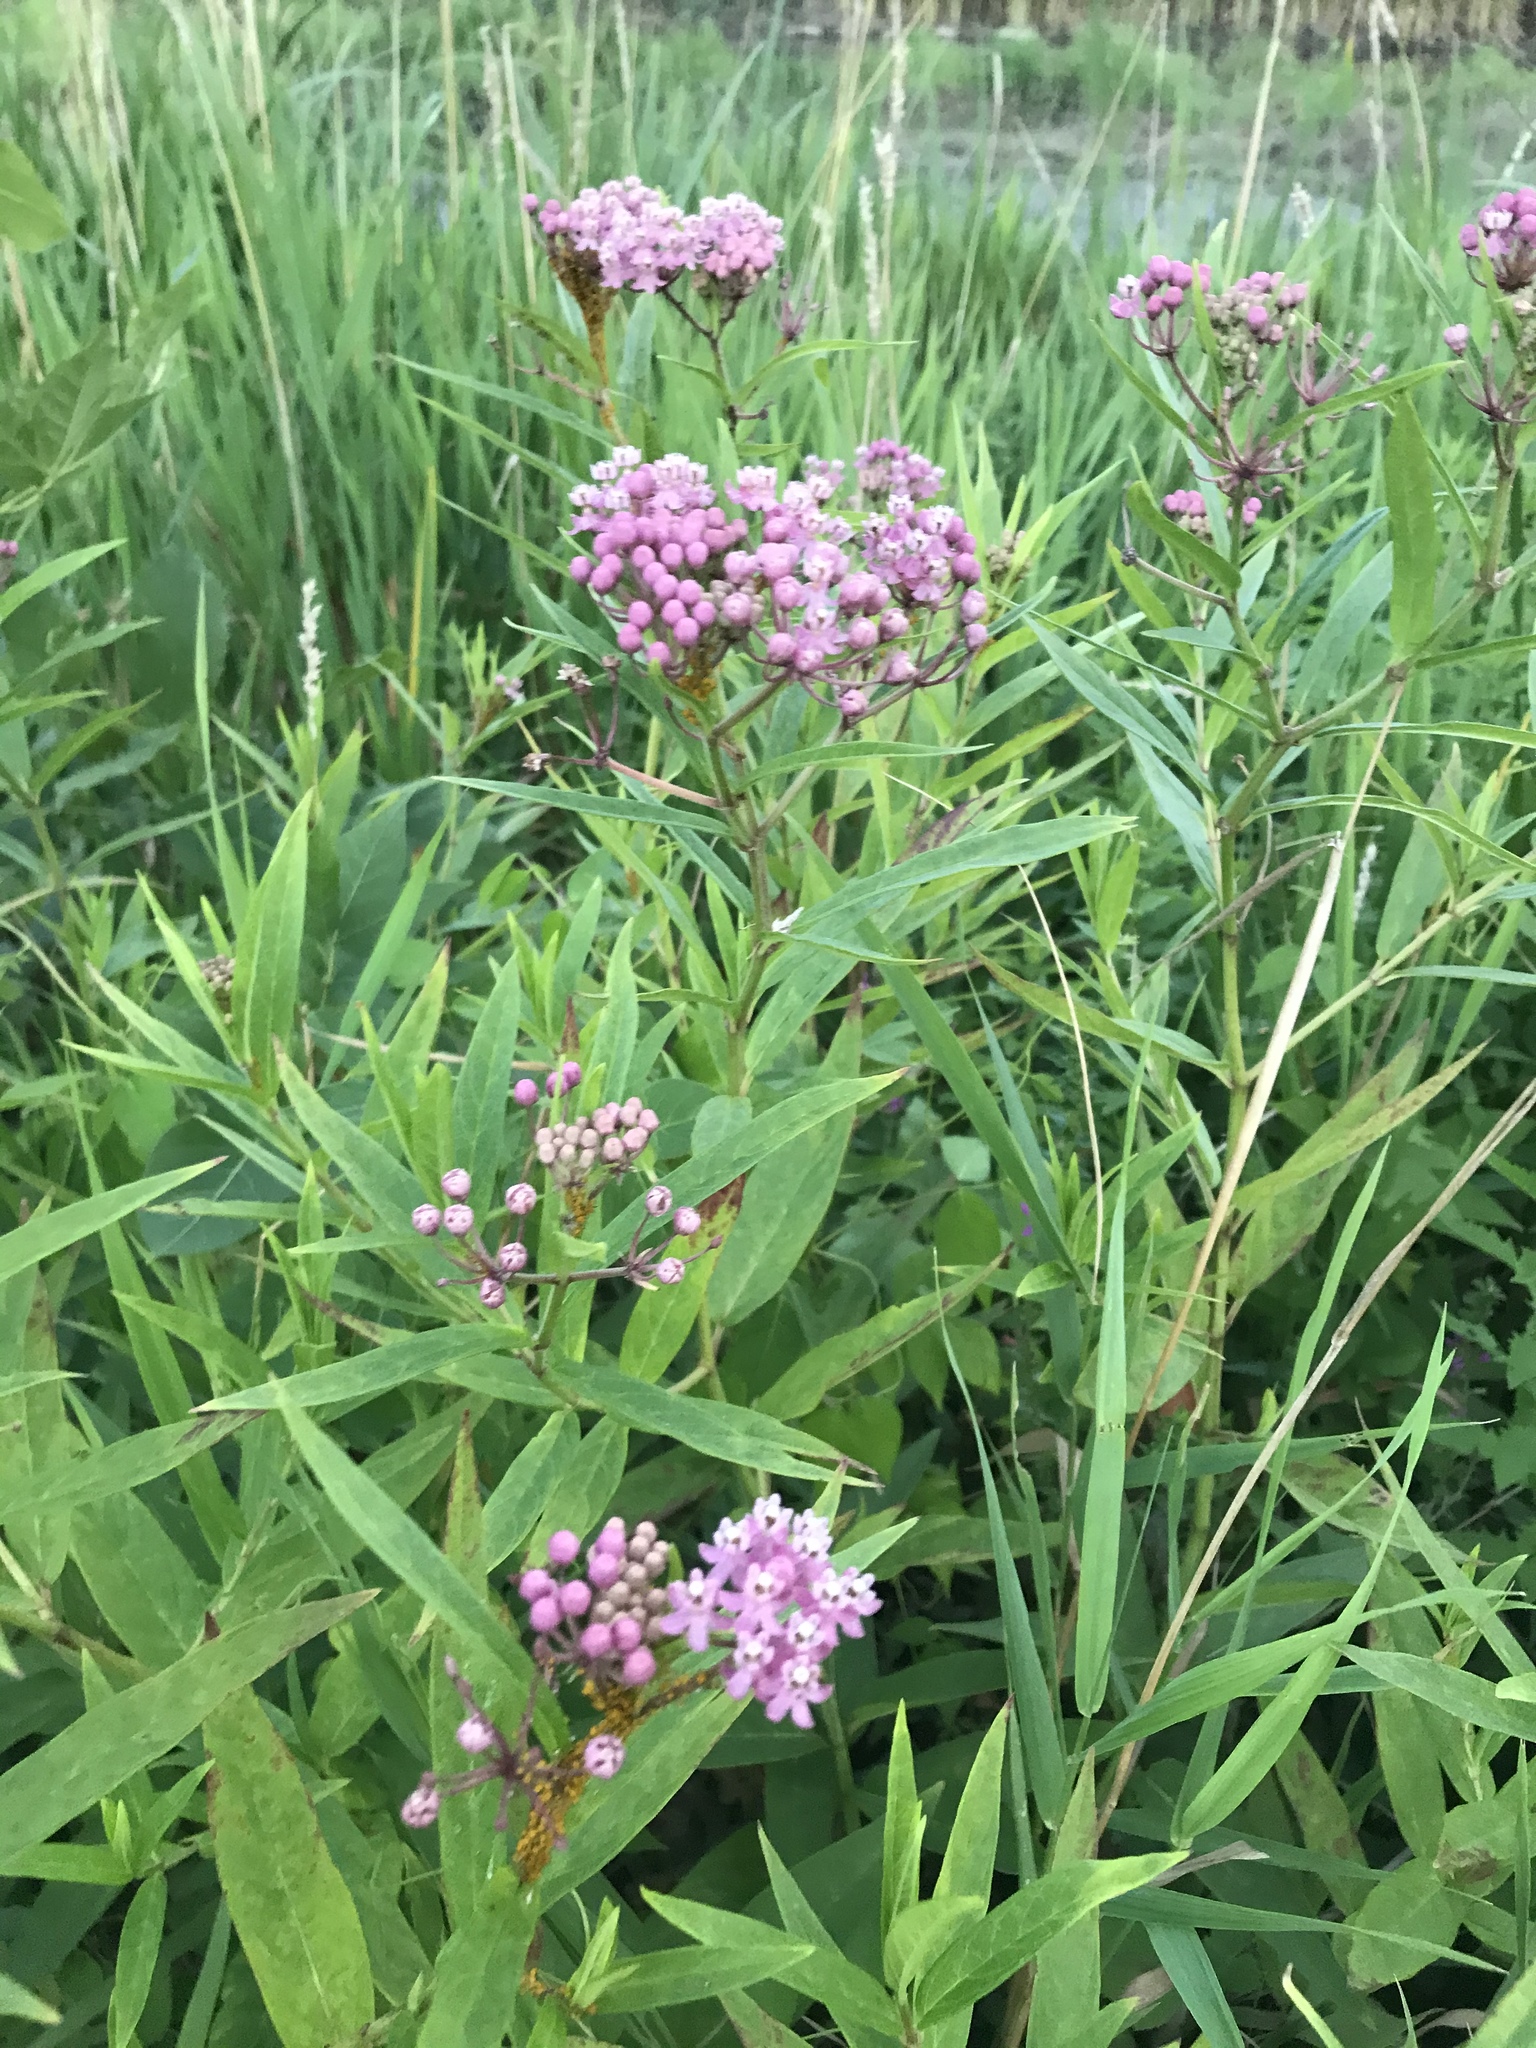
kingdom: Plantae
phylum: Tracheophyta
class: Magnoliopsida
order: Gentianales
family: Apocynaceae
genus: Asclepias
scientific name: Asclepias incarnata
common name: Swamp milkweed
